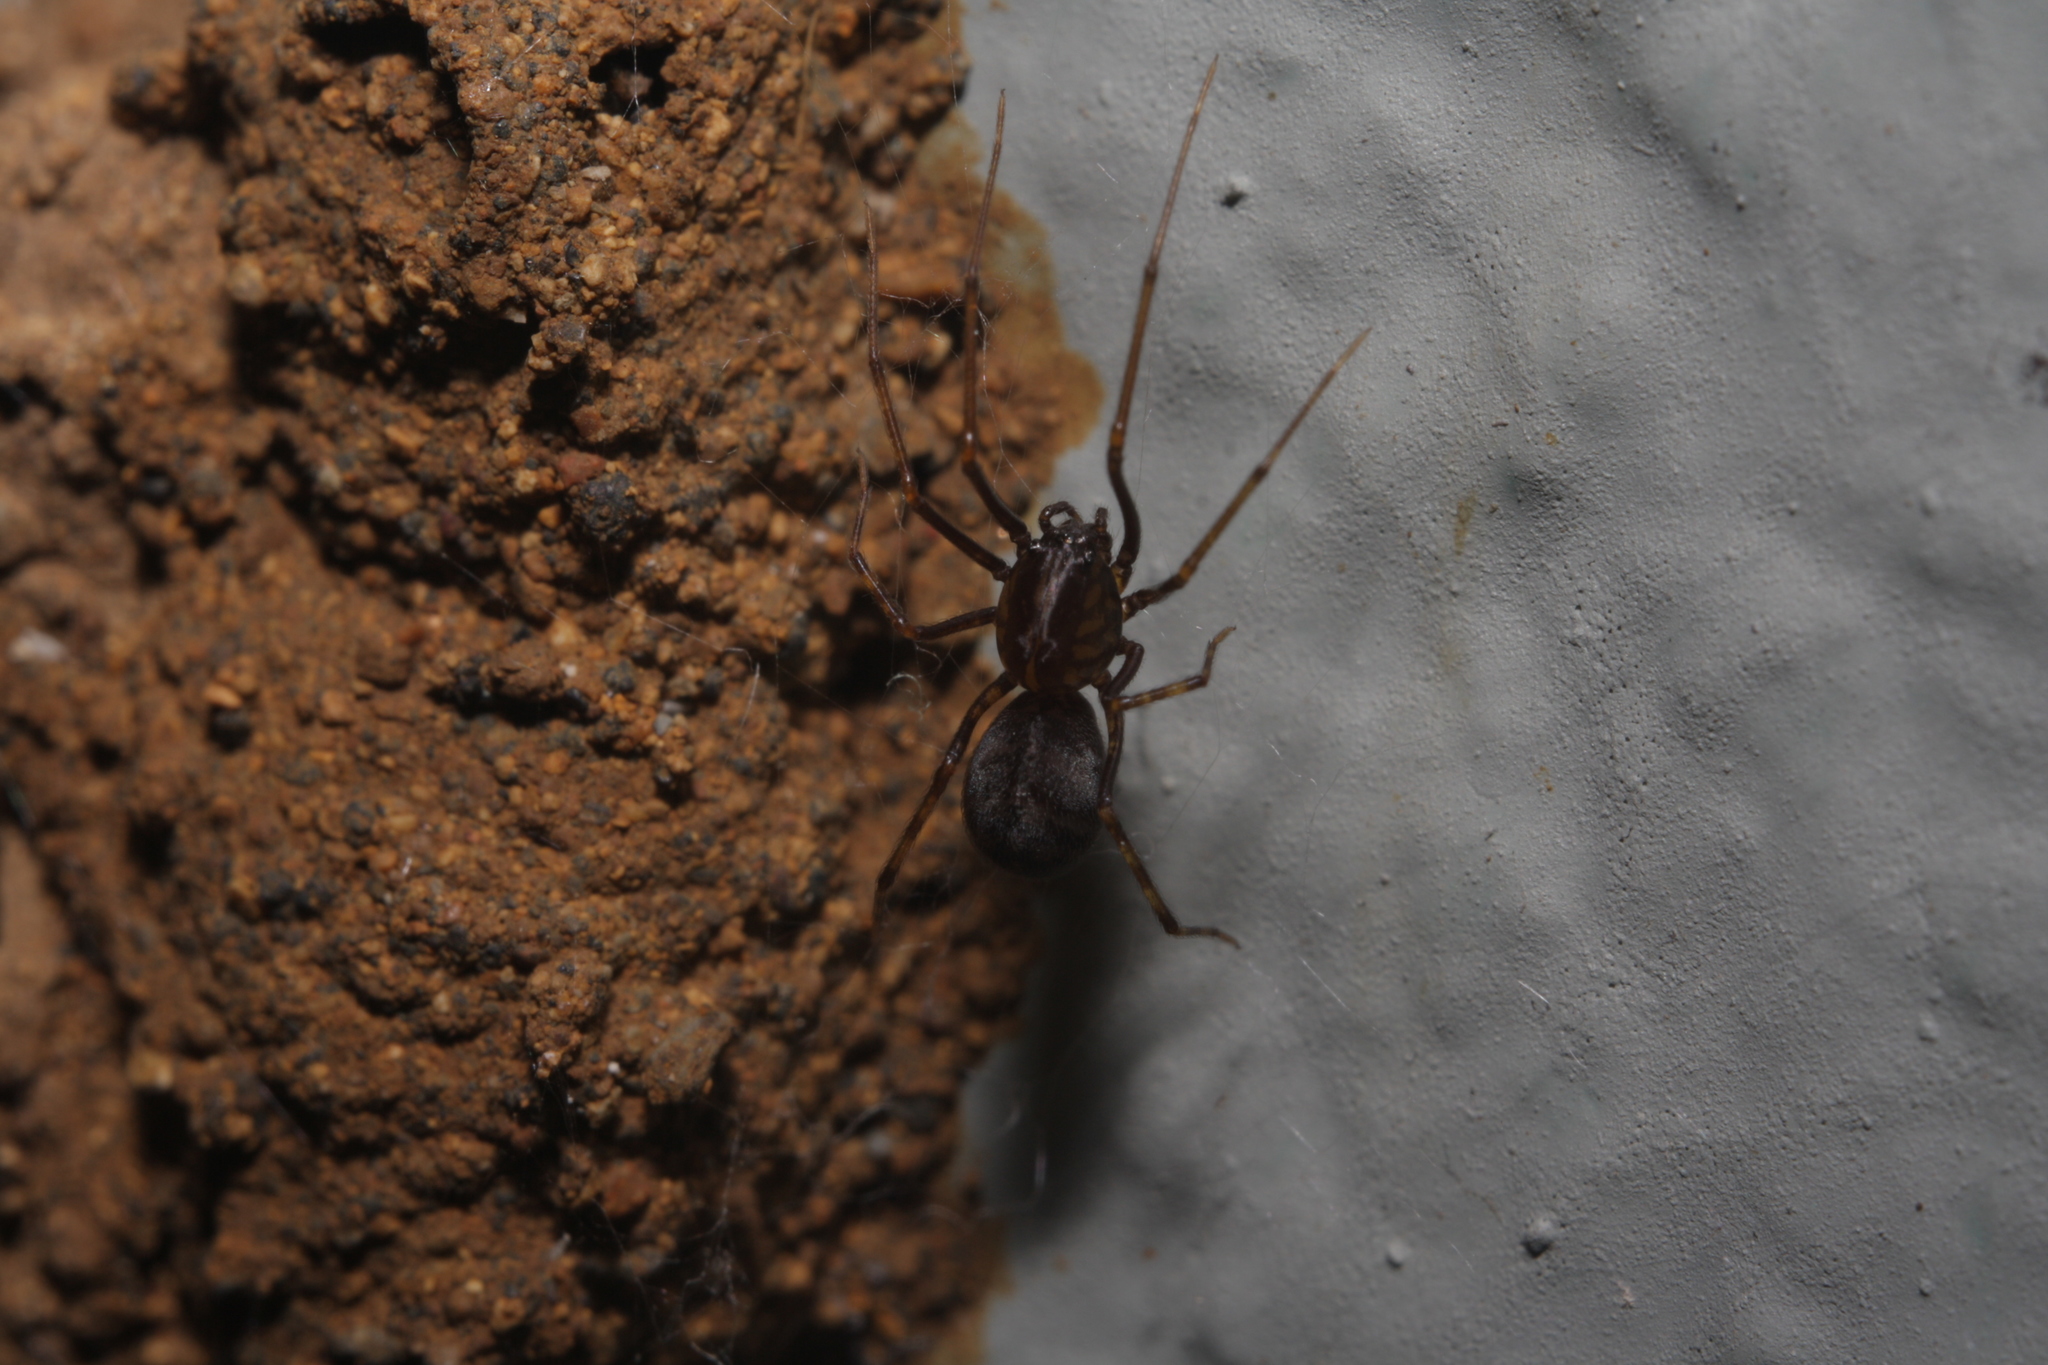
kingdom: Animalia
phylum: Arthropoda
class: Arachnida
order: Araneae
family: Scytodidae
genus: Scytodes
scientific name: Scytodes fusca
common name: Spitting spiders
